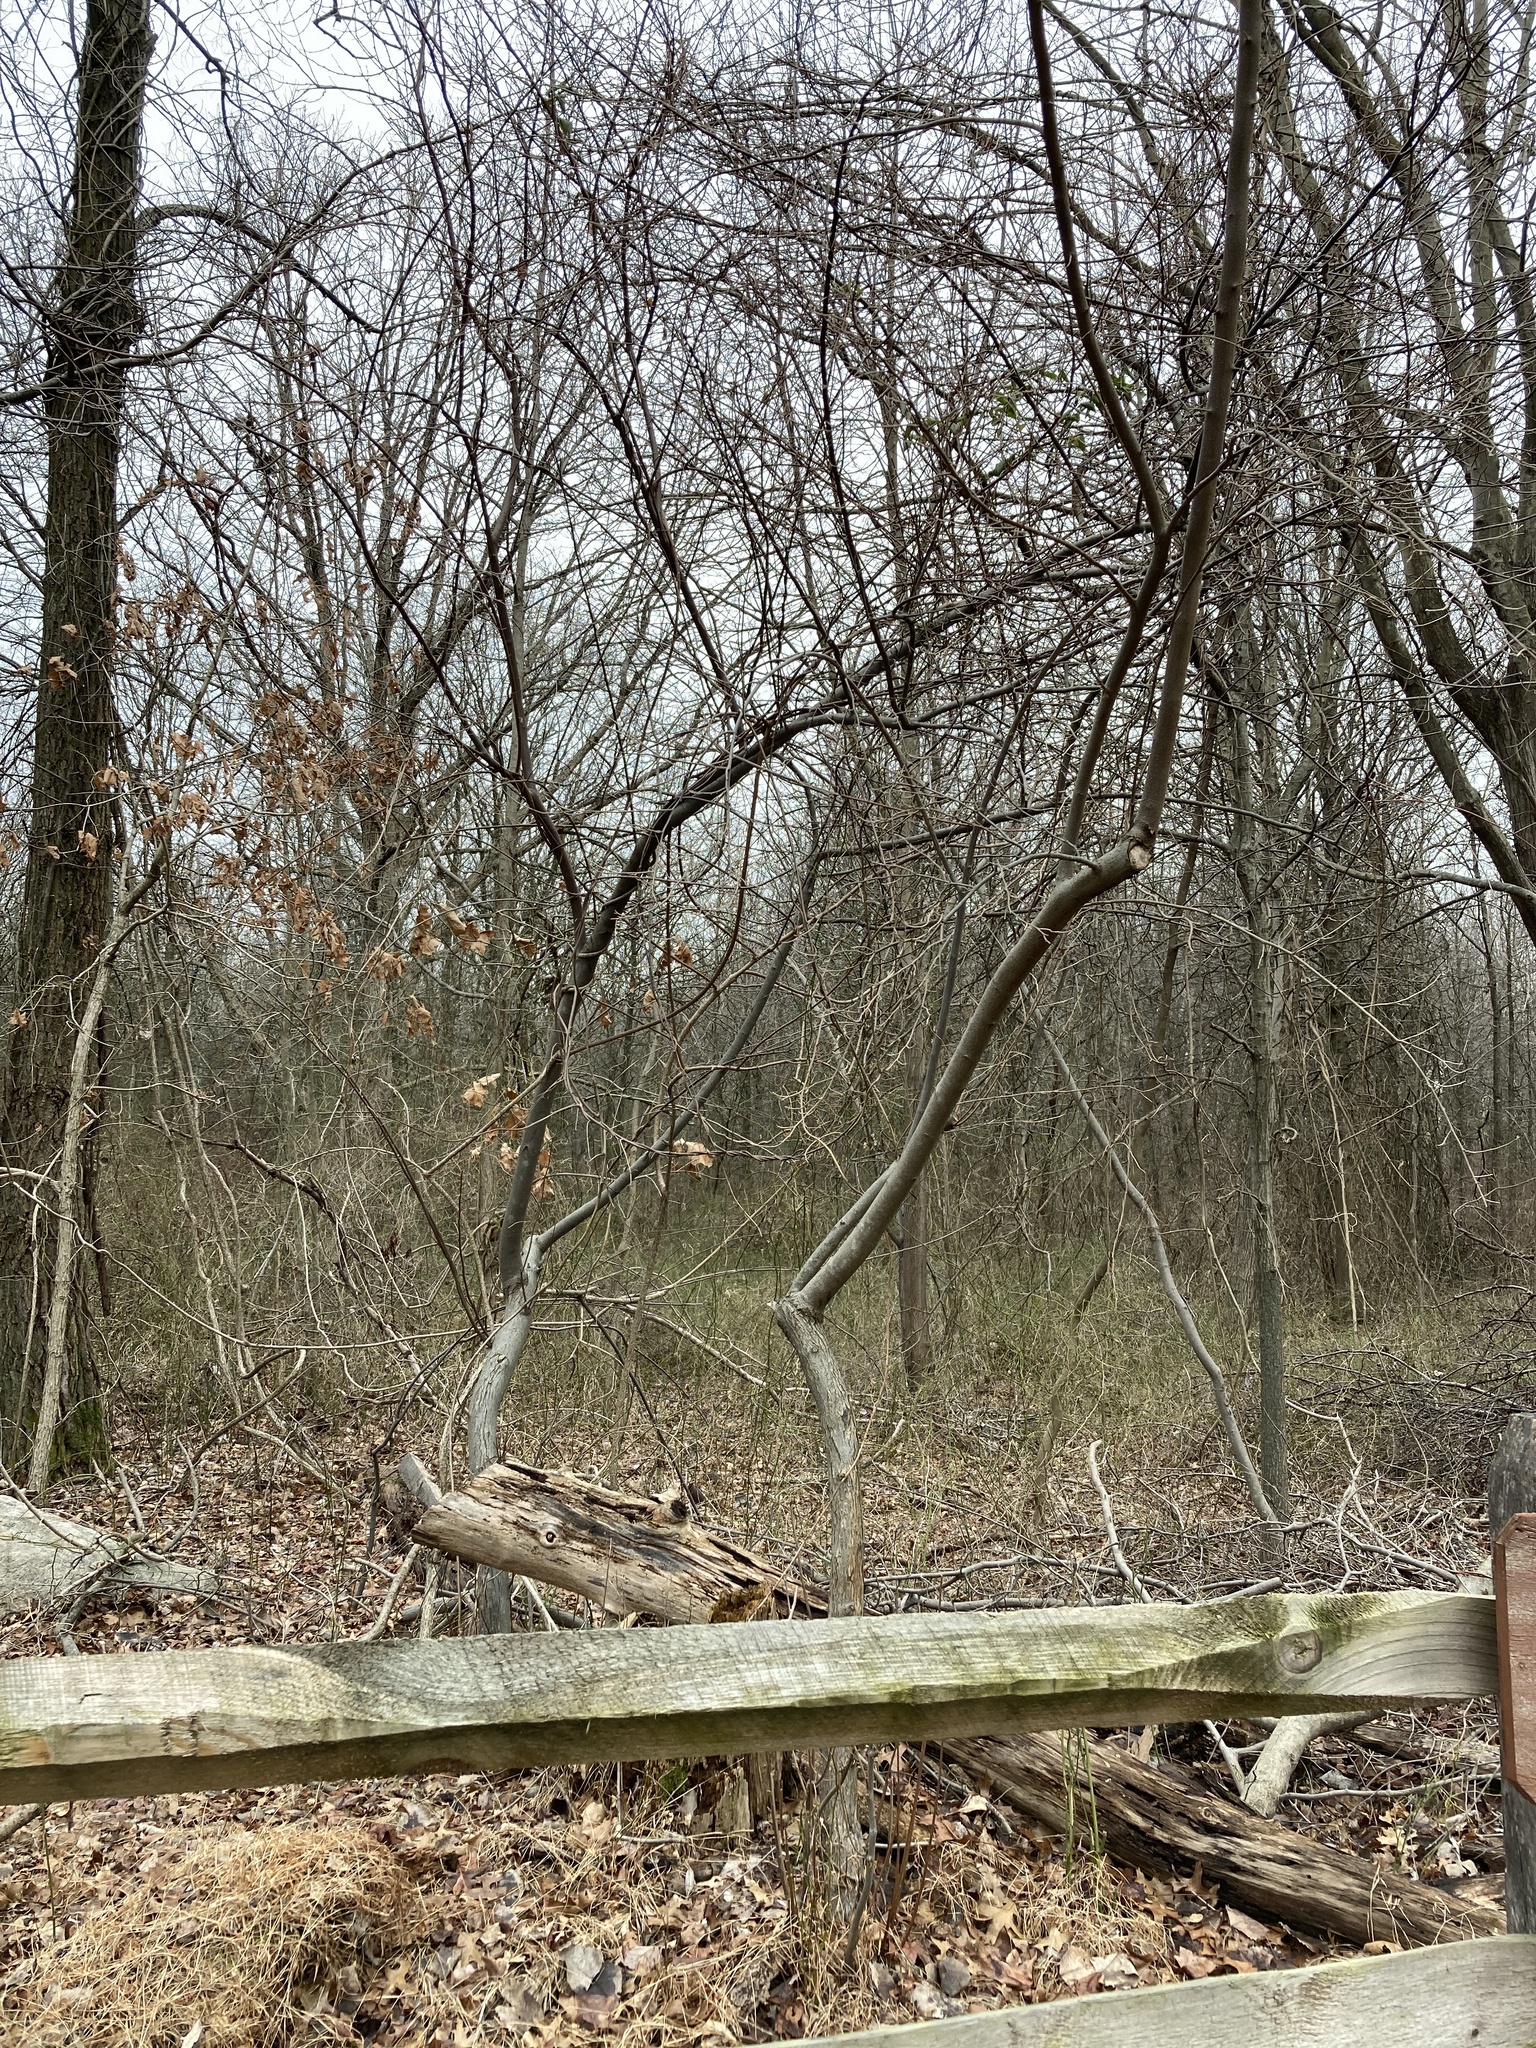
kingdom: Plantae
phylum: Tracheophyta
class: Magnoliopsida
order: Rosales
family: Elaeagnaceae
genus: Elaeagnus
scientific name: Elaeagnus umbellata
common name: Autumn olive
